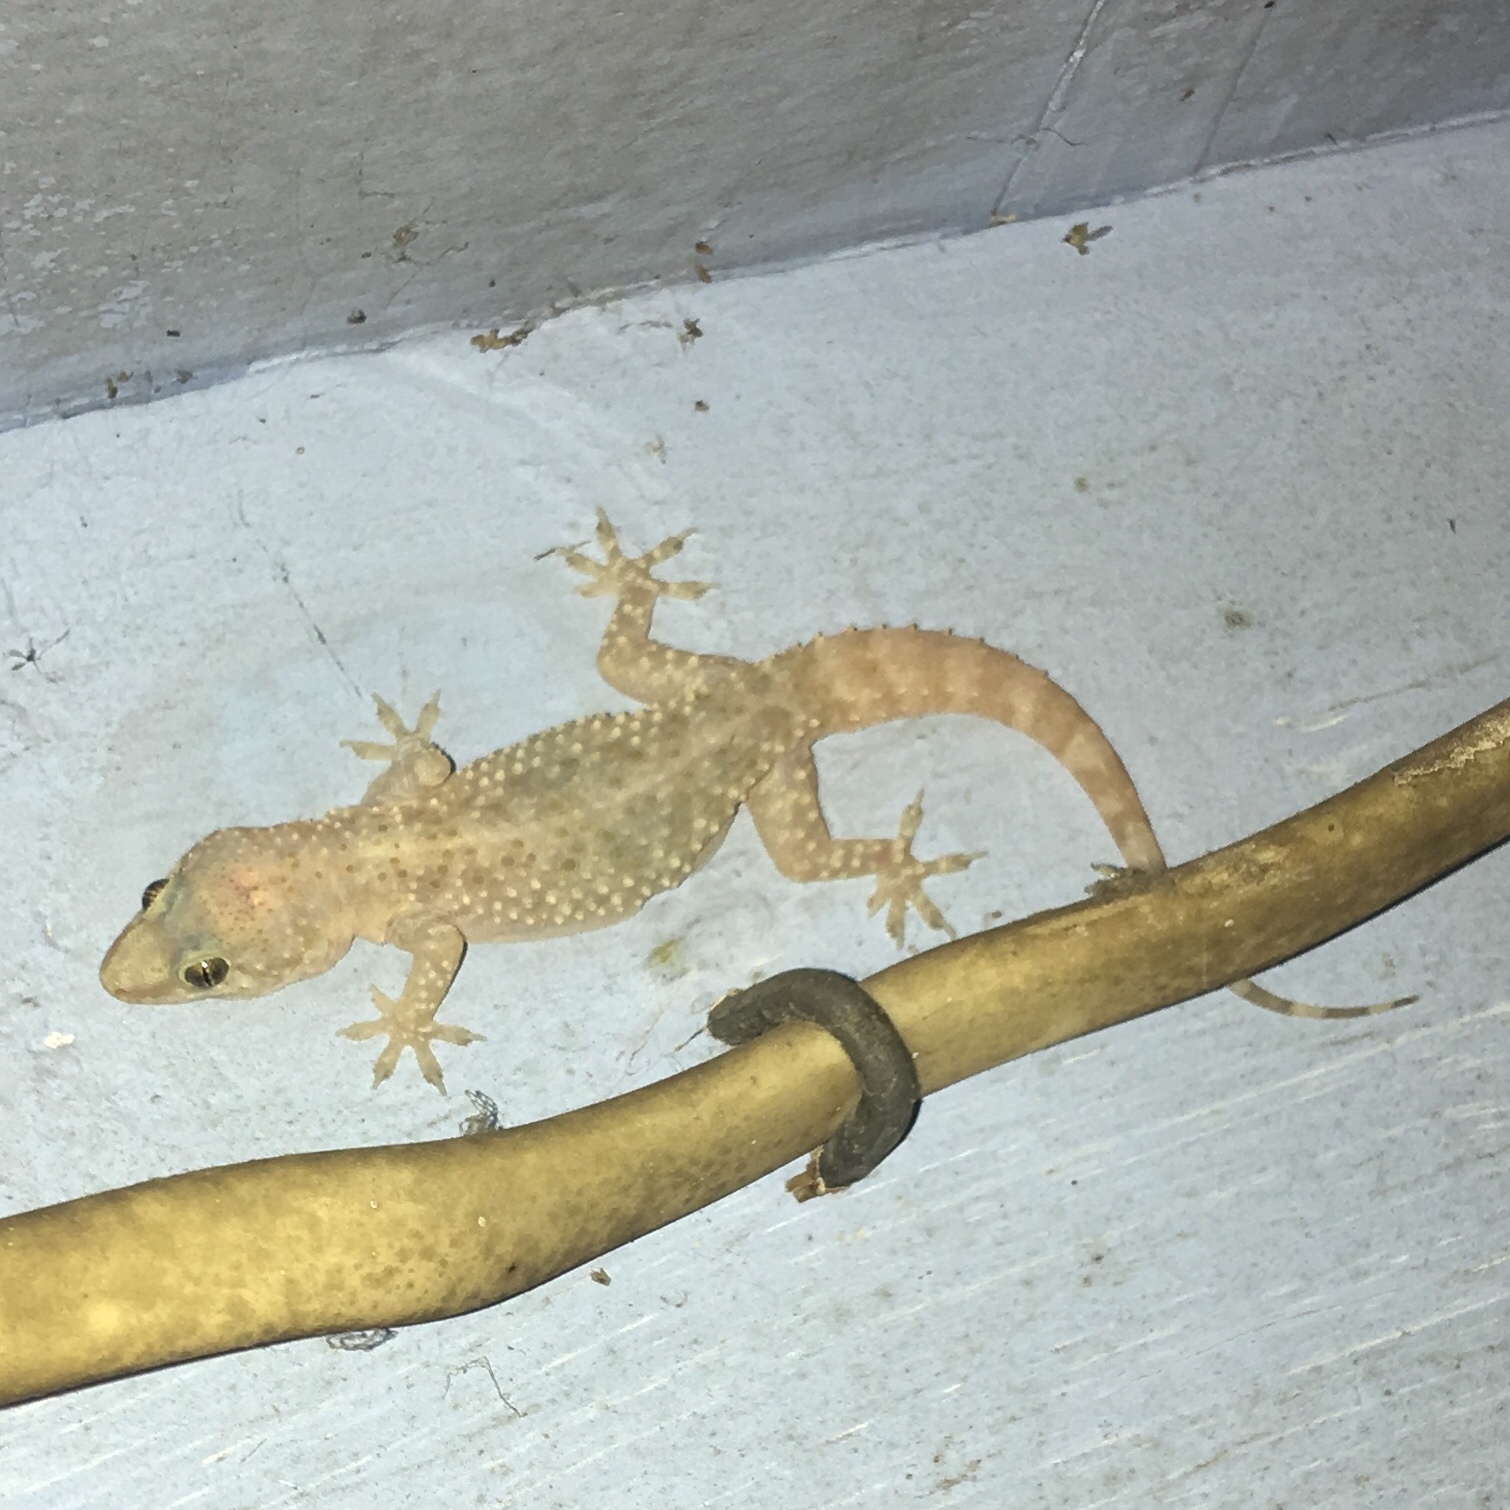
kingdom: Animalia
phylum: Chordata
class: Squamata
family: Gekkonidae
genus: Hemidactylus
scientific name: Hemidactylus turcicus
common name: Turkish gecko
